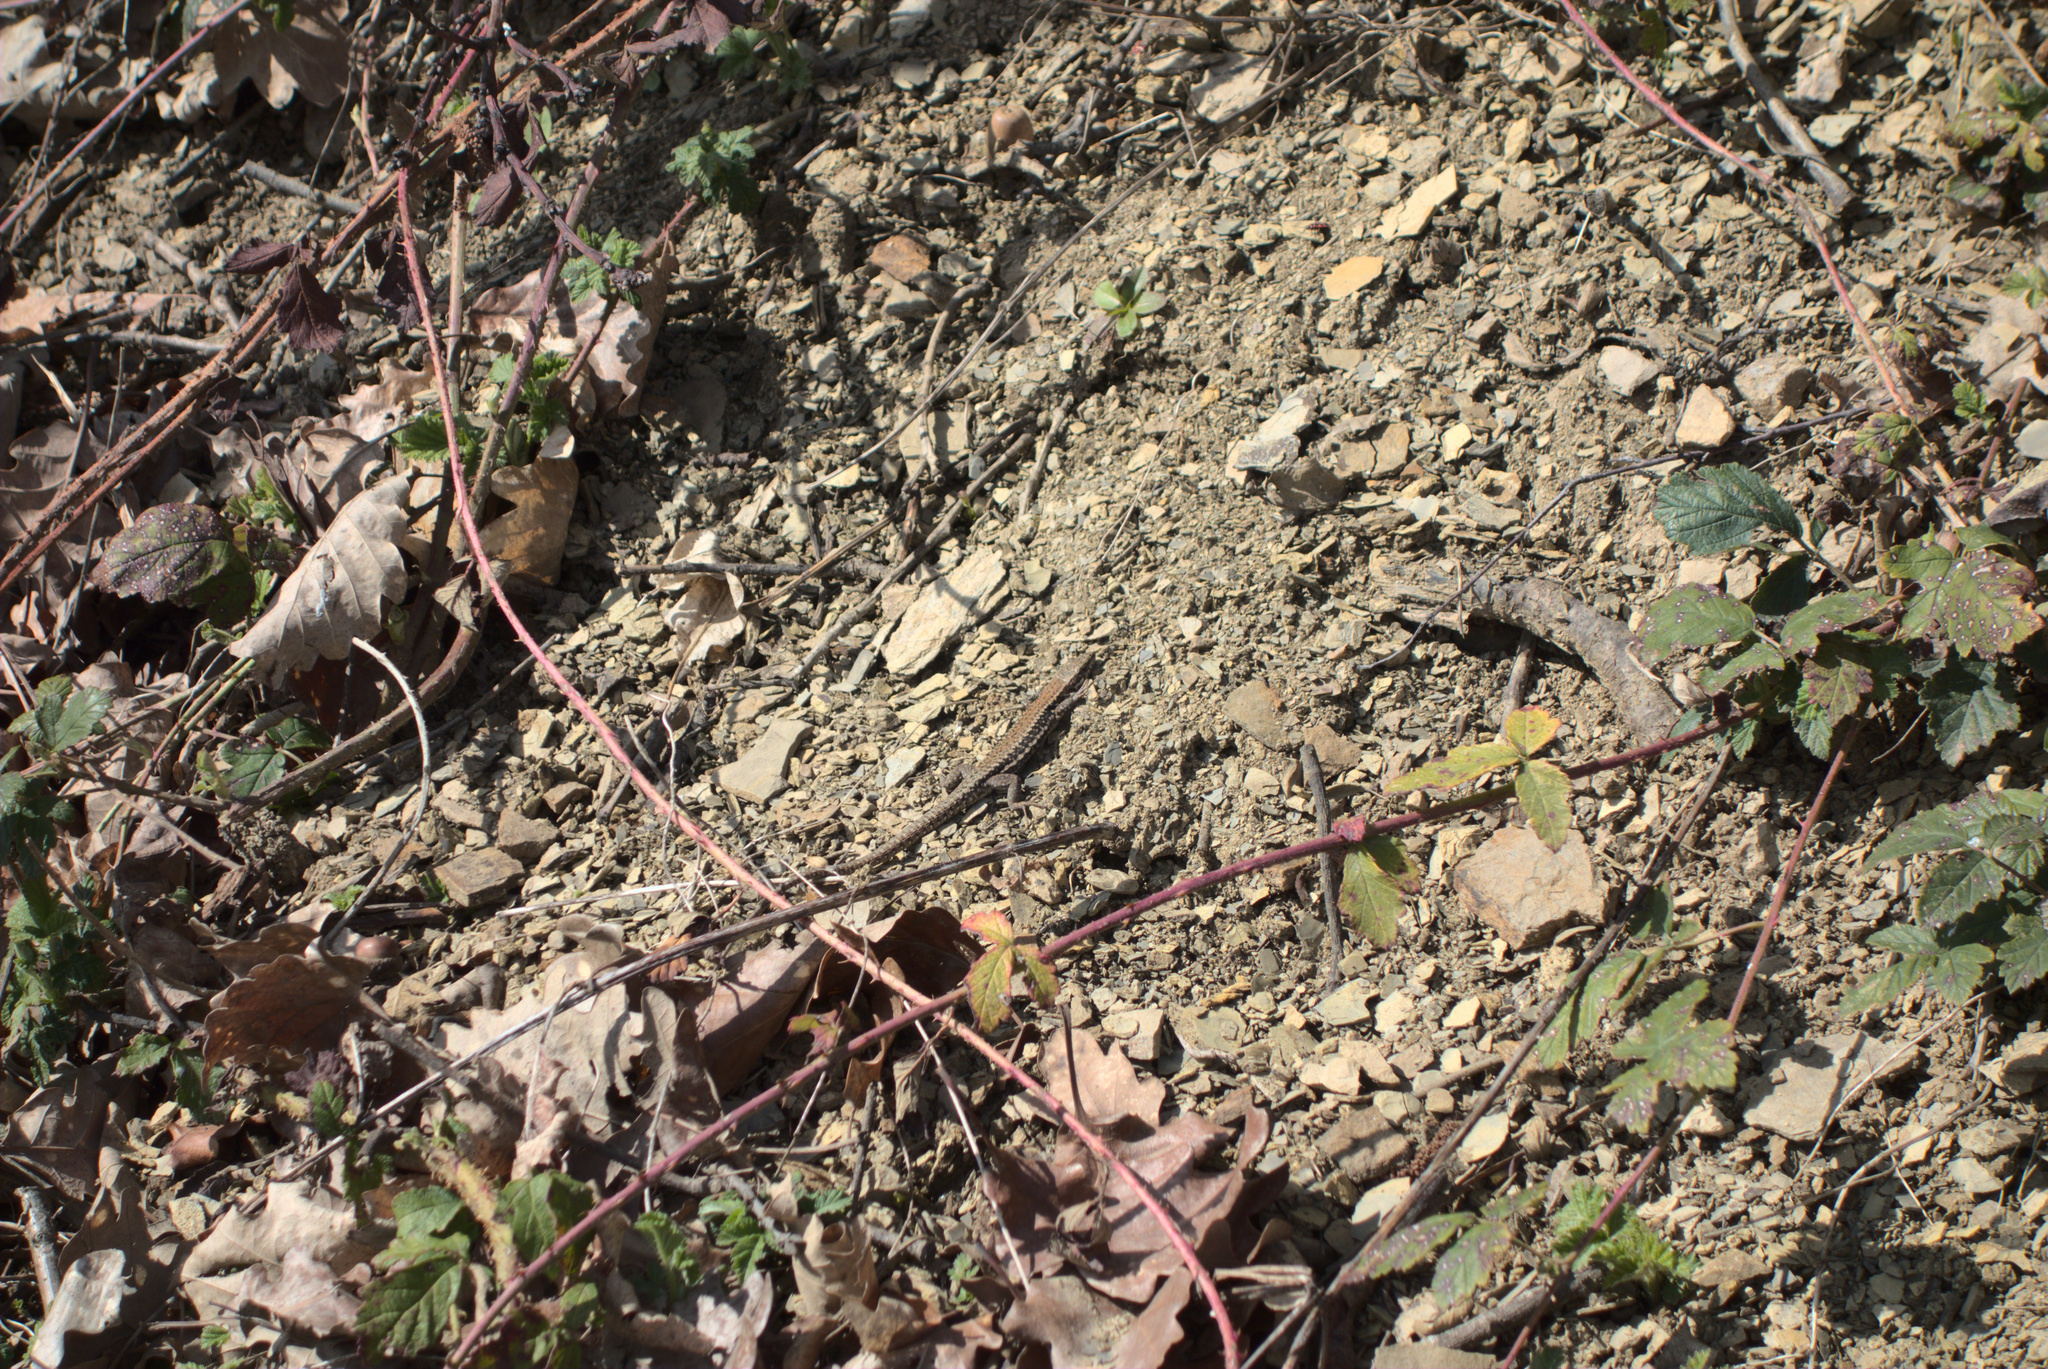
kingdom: Animalia
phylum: Chordata
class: Squamata
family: Lacertidae
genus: Podarcis
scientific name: Podarcis muralis
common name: Common wall lizard
